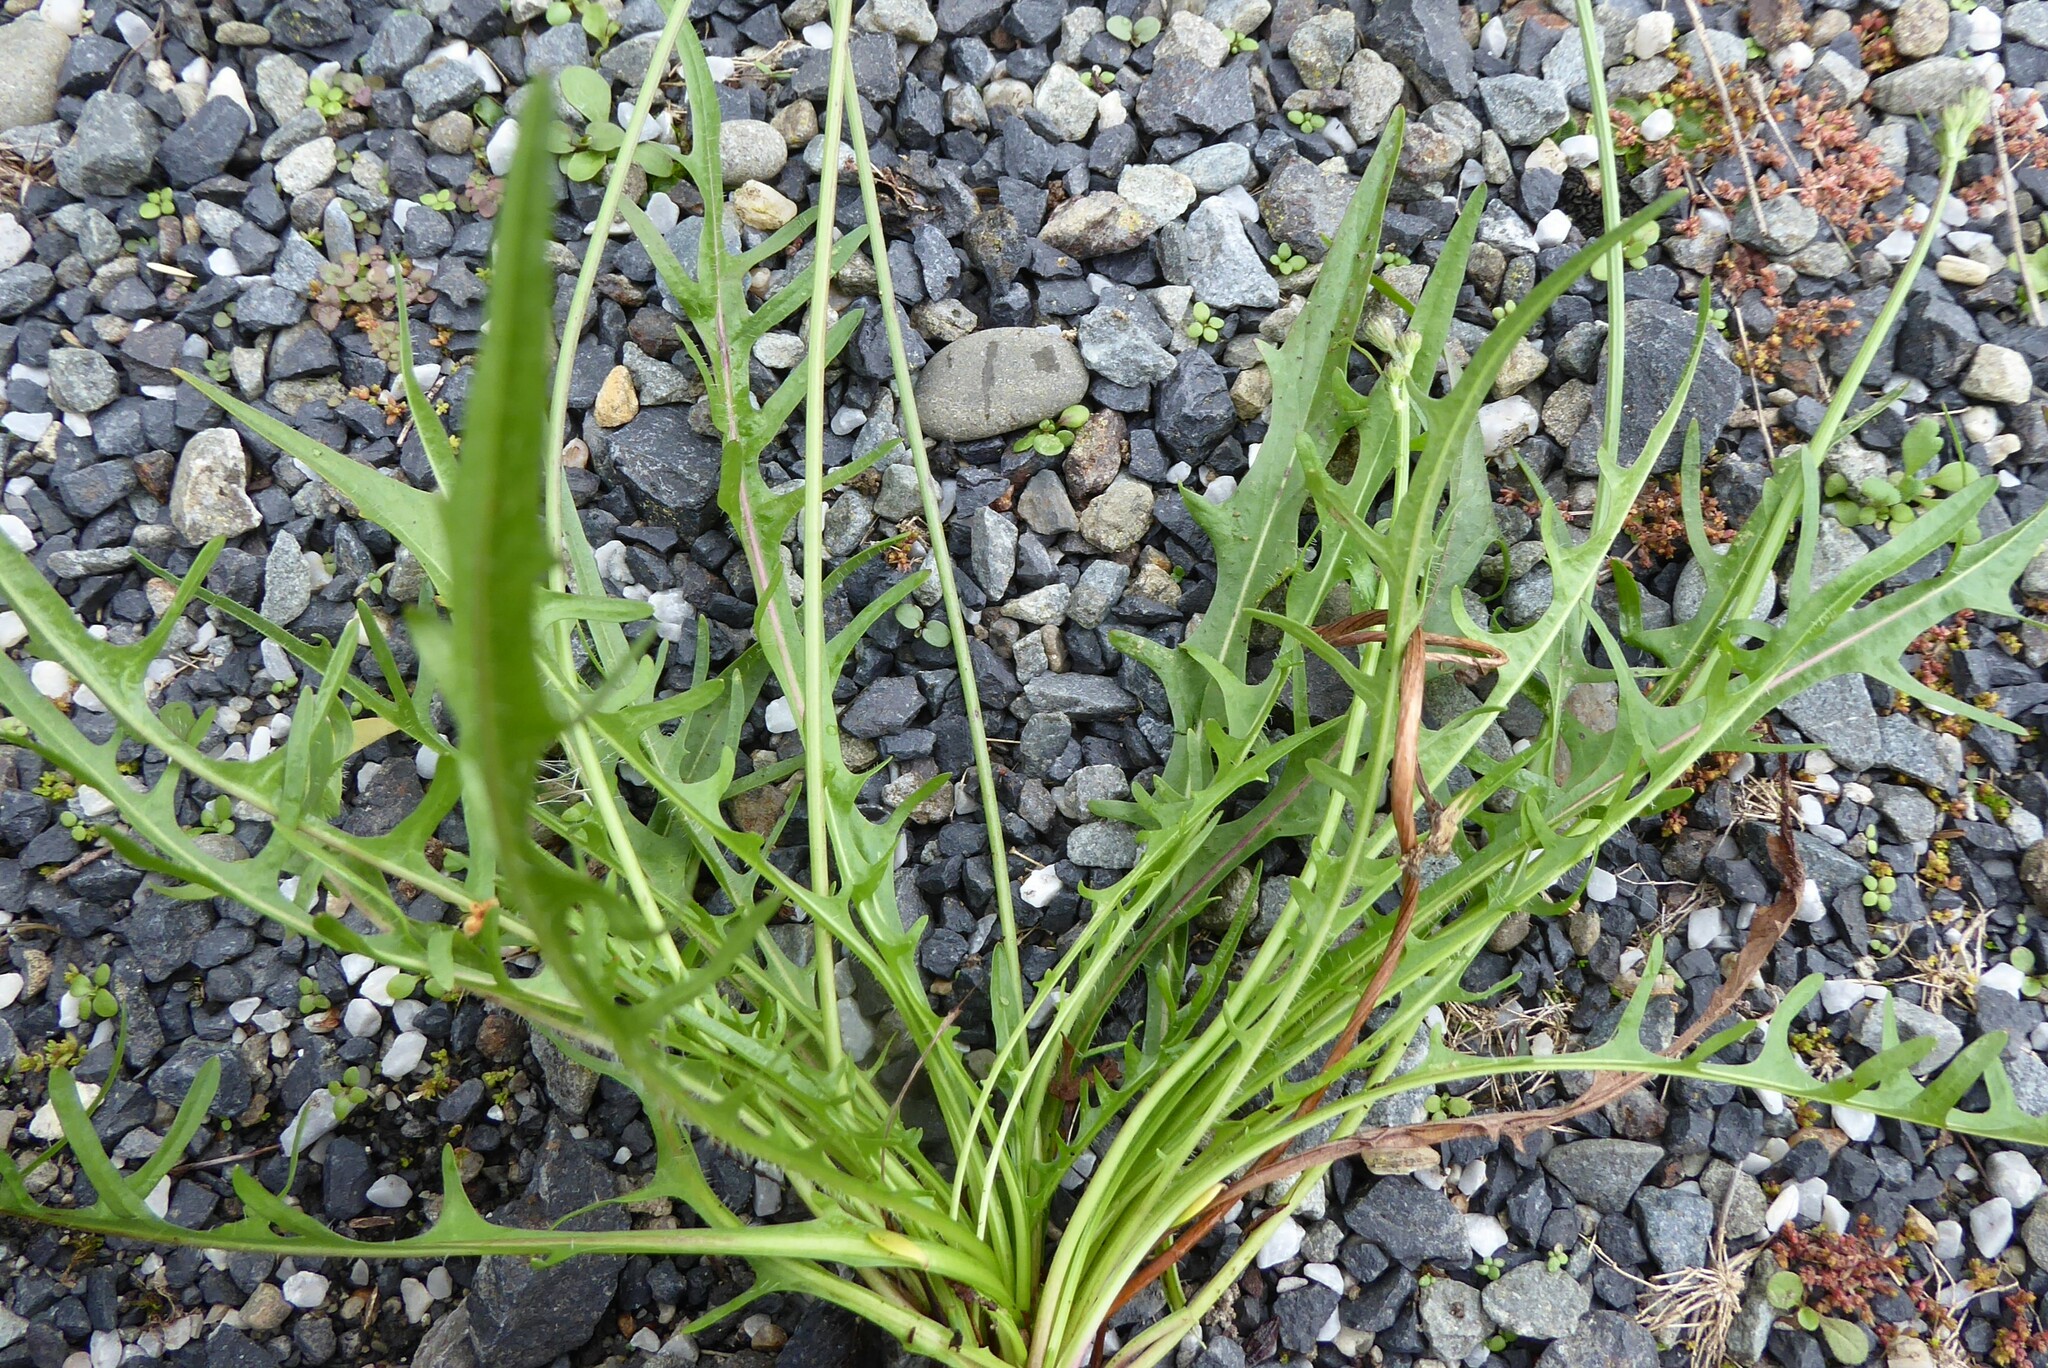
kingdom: Plantae
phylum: Tracheophyta
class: Magnoliopsida
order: Asterales
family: Asteraceae
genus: Scorzoneroides
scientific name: Scorzoneroides autumnalis
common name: Autumn hawkbit
